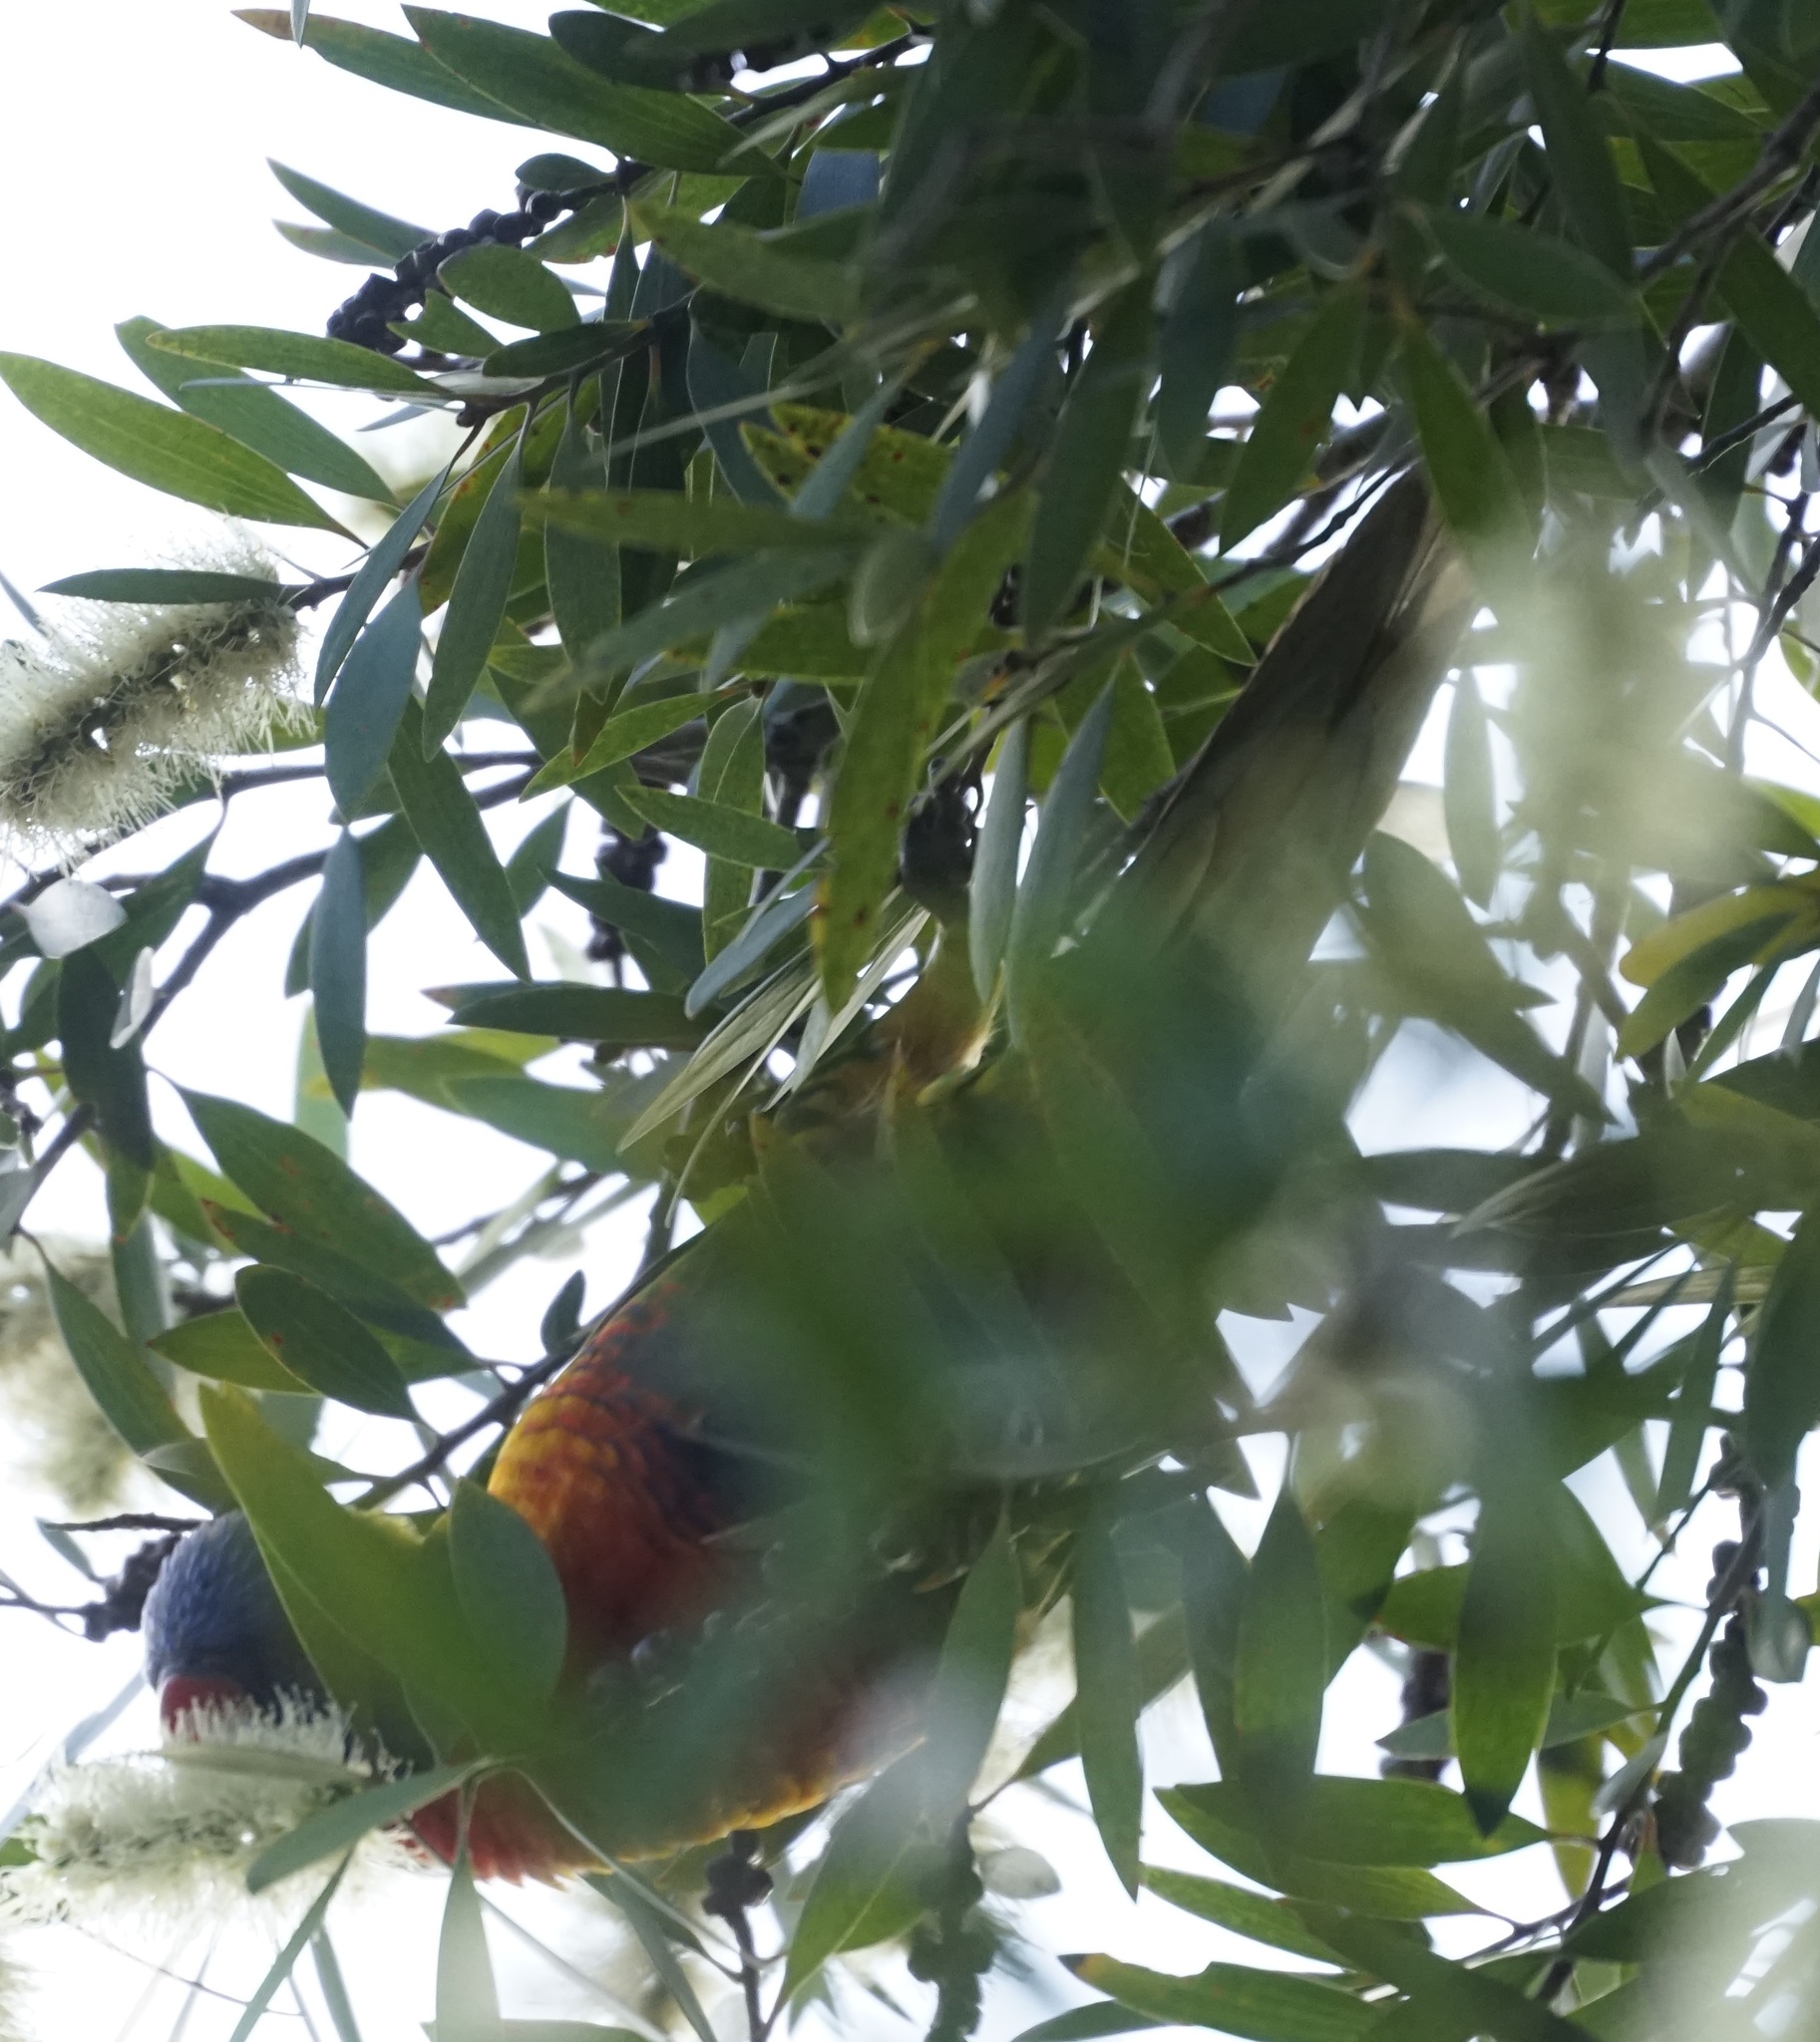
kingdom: Animalia
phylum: Chordata
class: Aves
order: Psittaciformes
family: Psittacidae
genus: Trichoglossus
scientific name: Trichoglossus haematodus
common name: Coconut lorikeet
